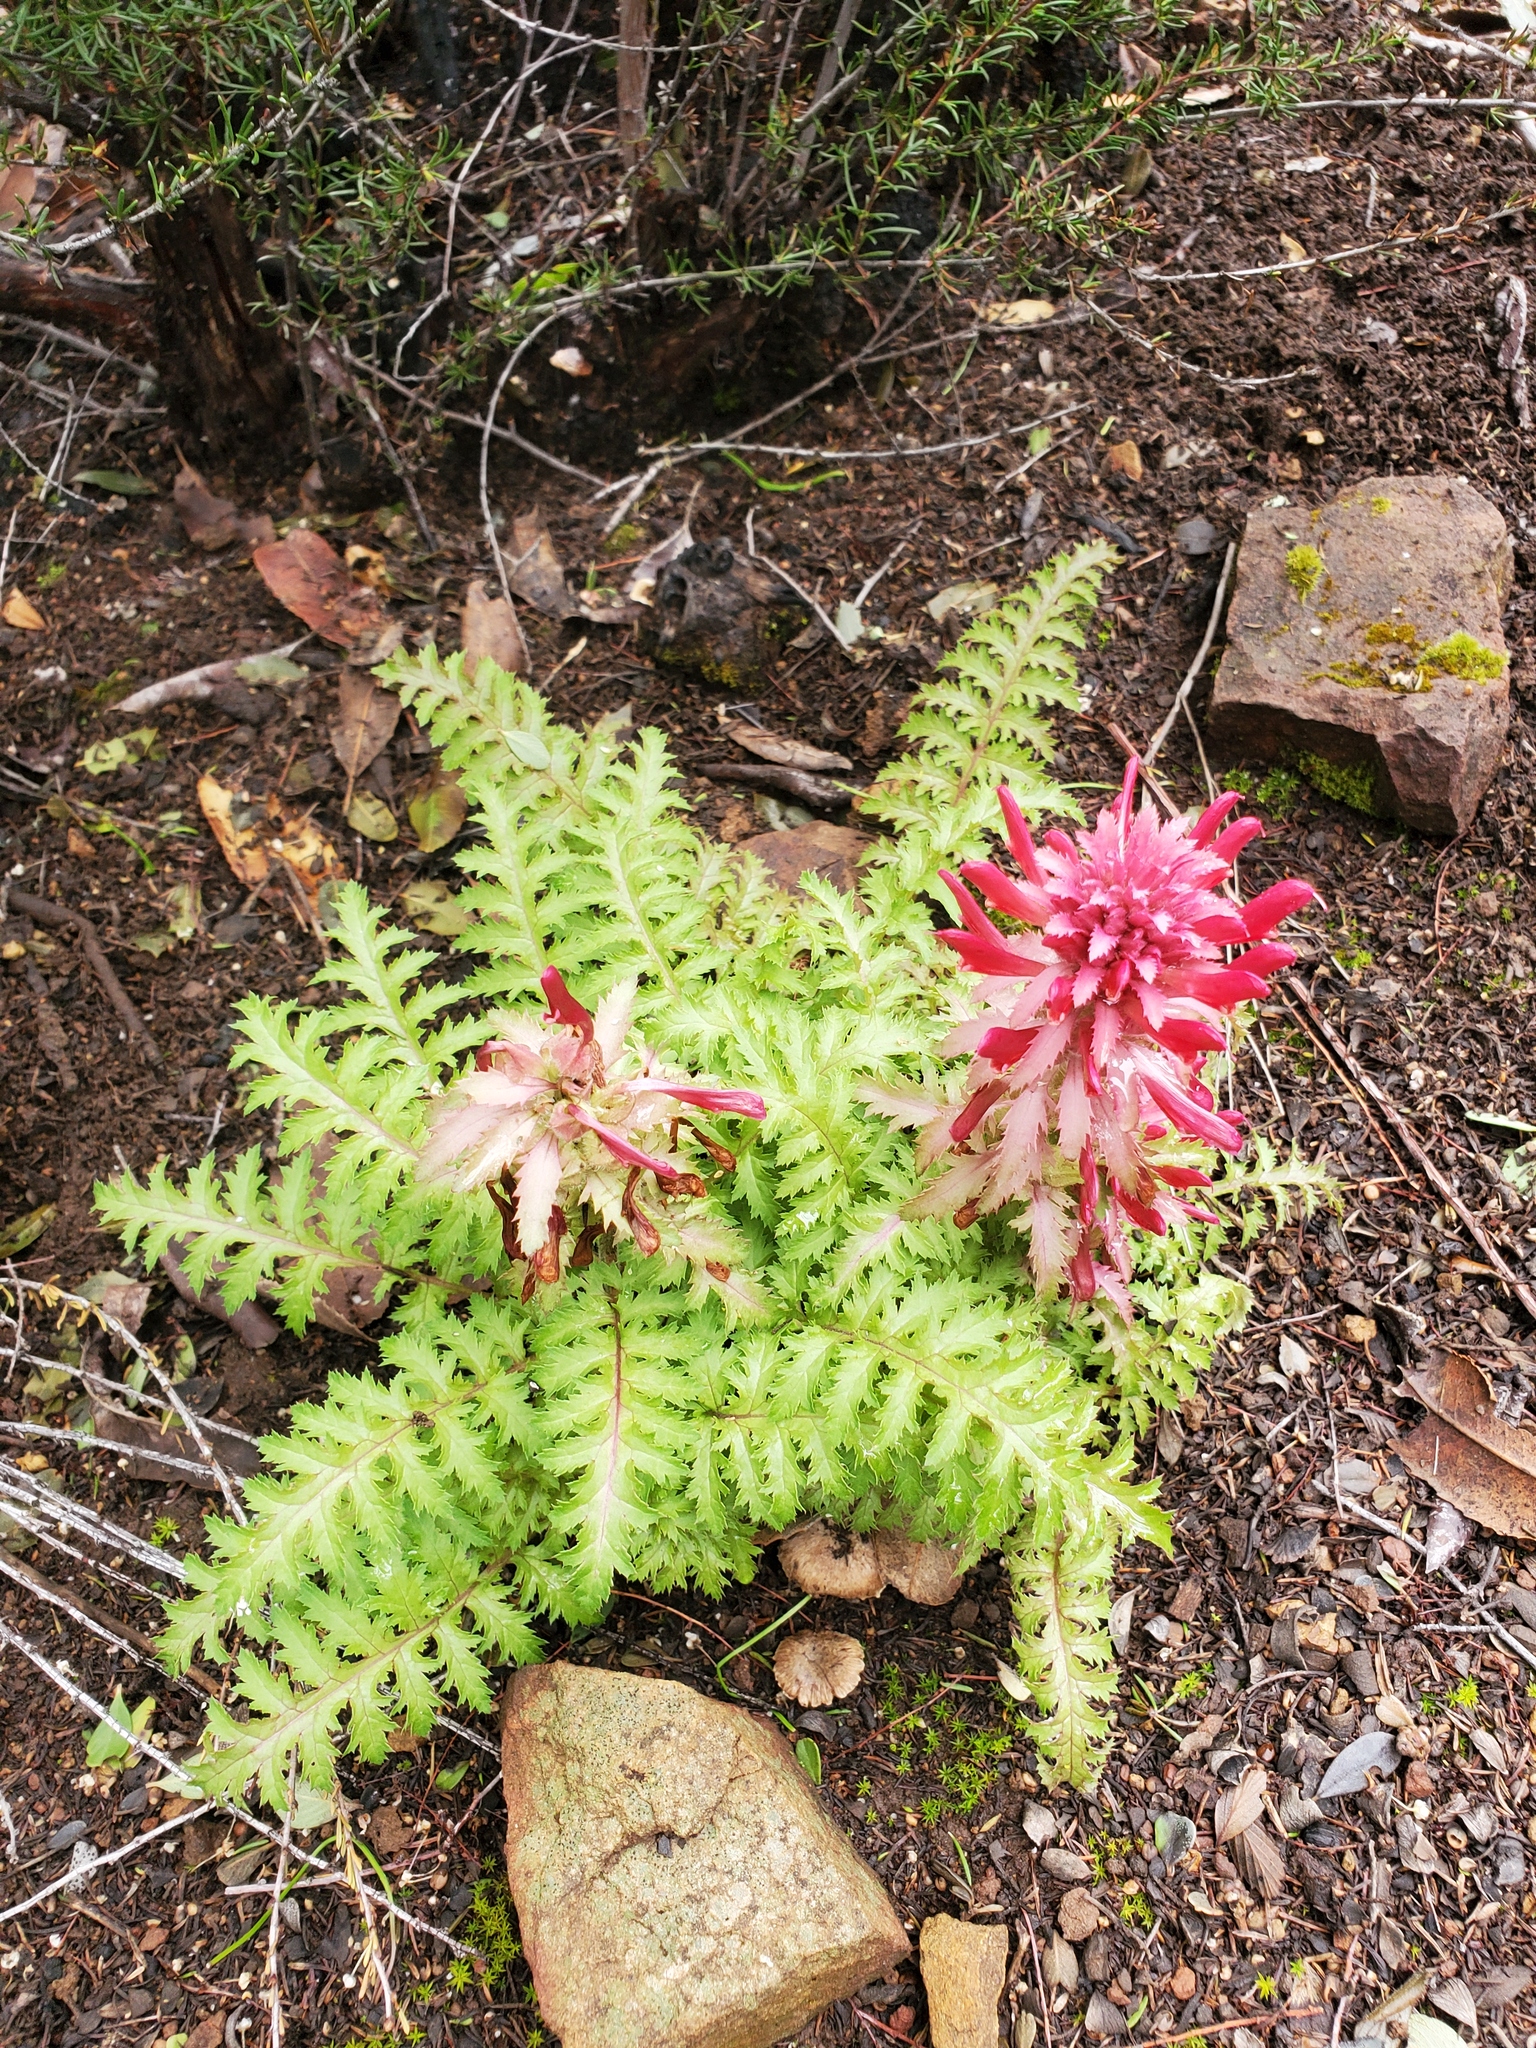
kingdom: Plantae
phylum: Tracheophyta
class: Magnoliopsida
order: Lamiales
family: Orobanchaceae
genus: Pedicularis
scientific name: Pedicularis densiflora
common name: Indian warrior
